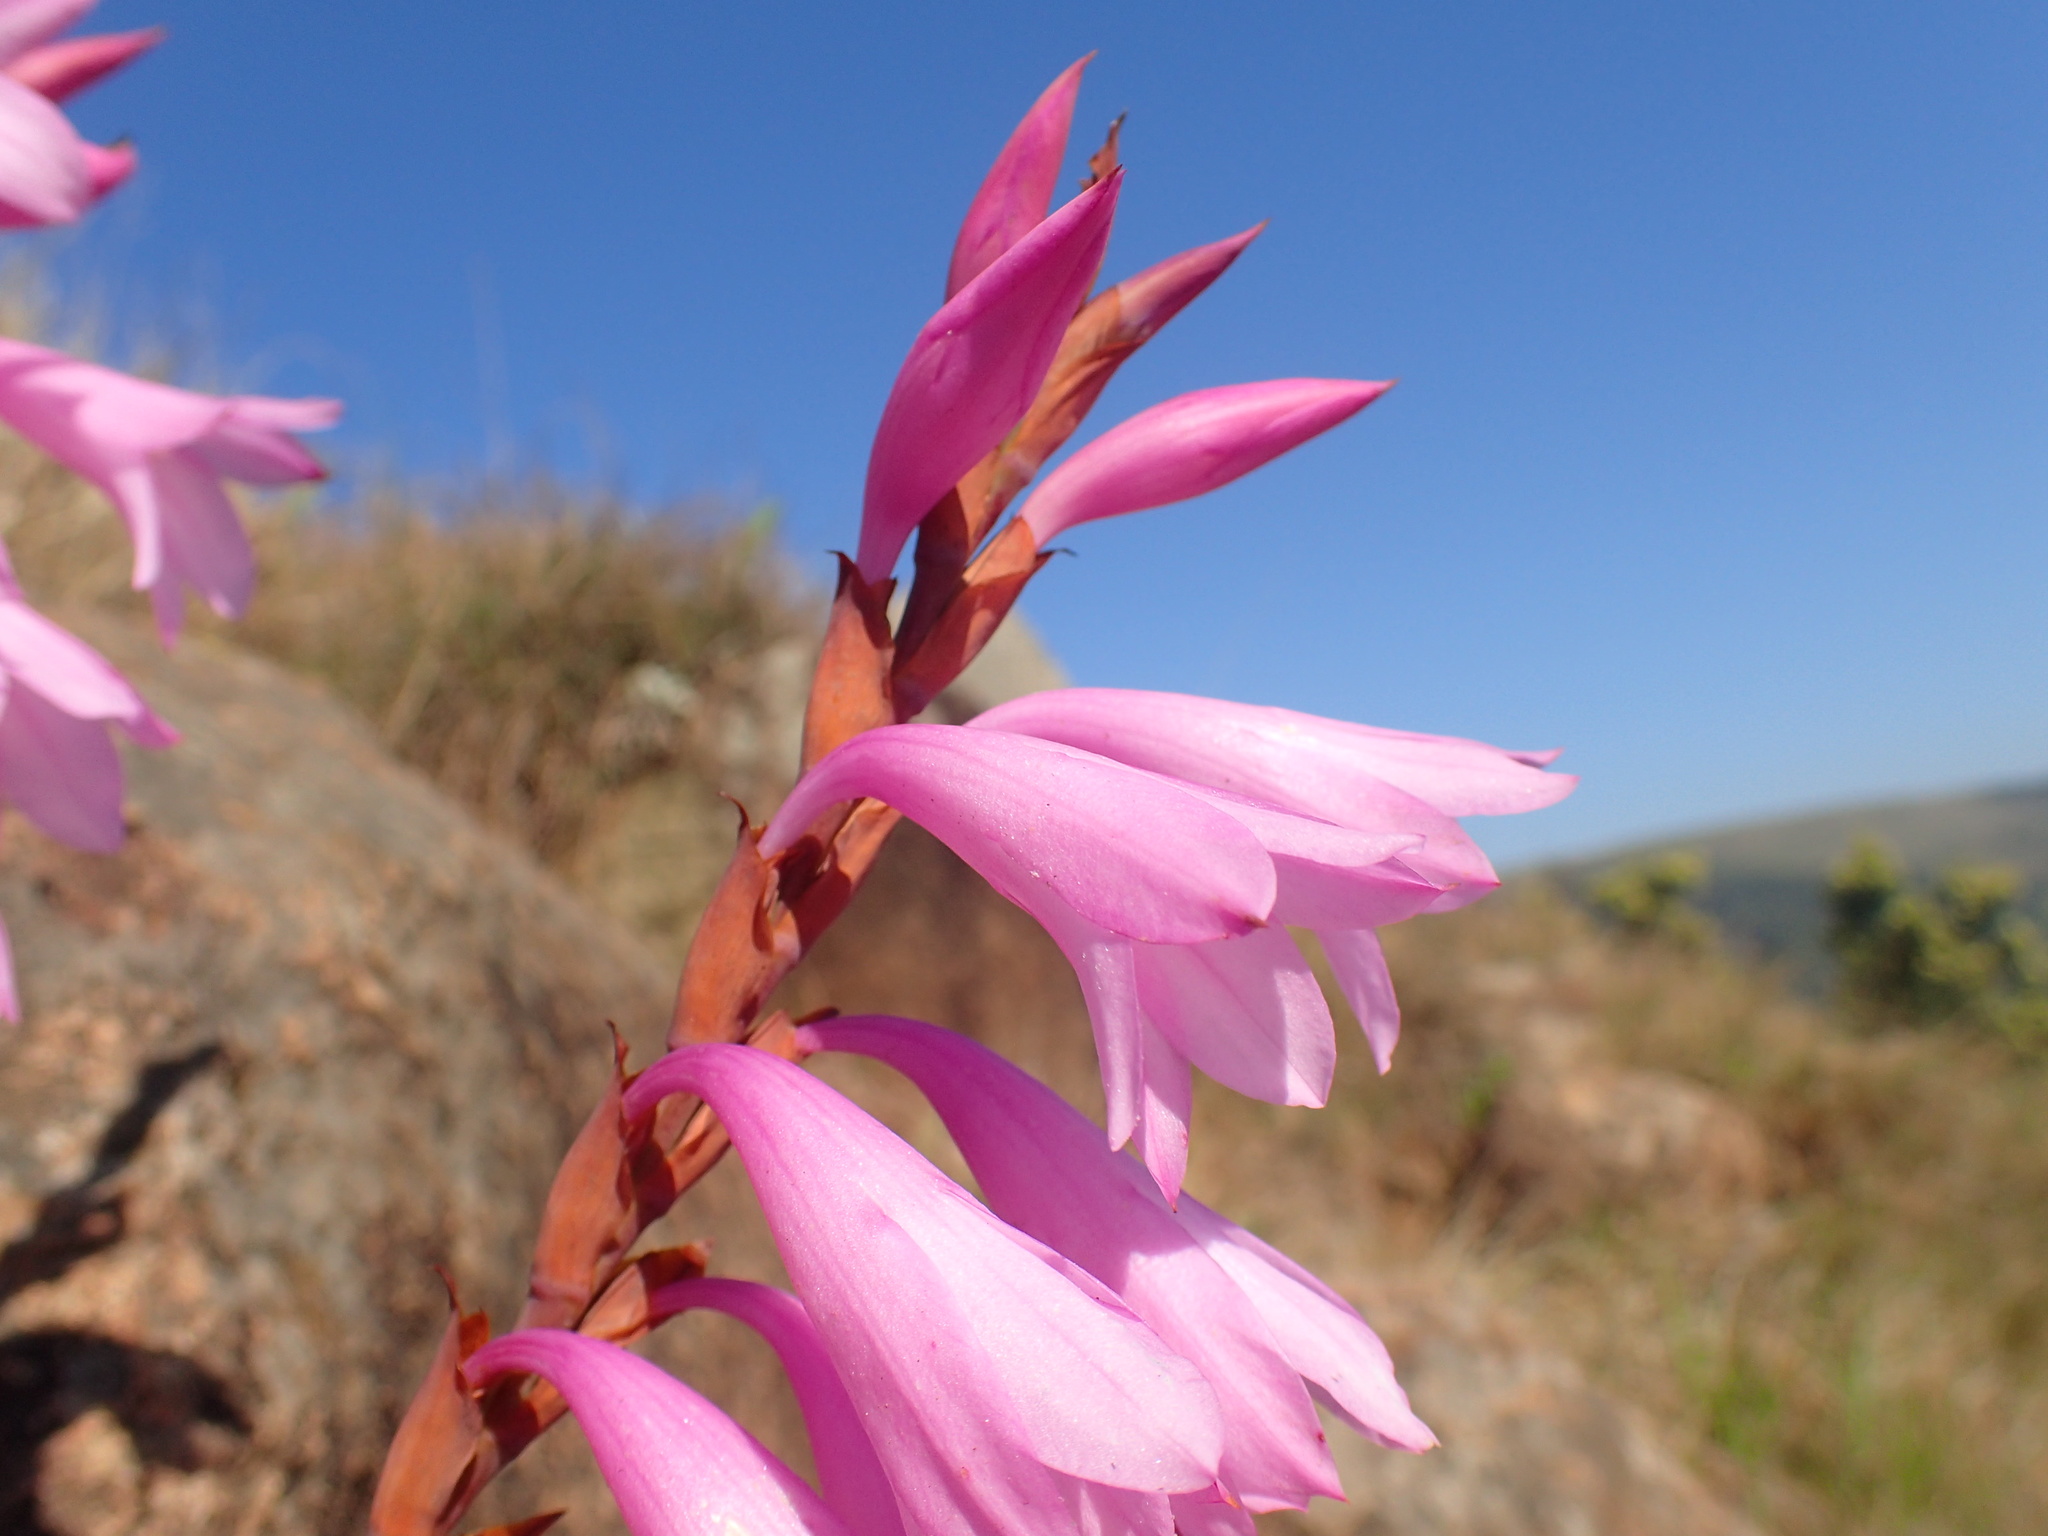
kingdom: Plantae
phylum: Tracheophyta
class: Liliopsida
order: Asparagales
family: Iridaceae
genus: Watsonia
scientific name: Watsonia densiflora
